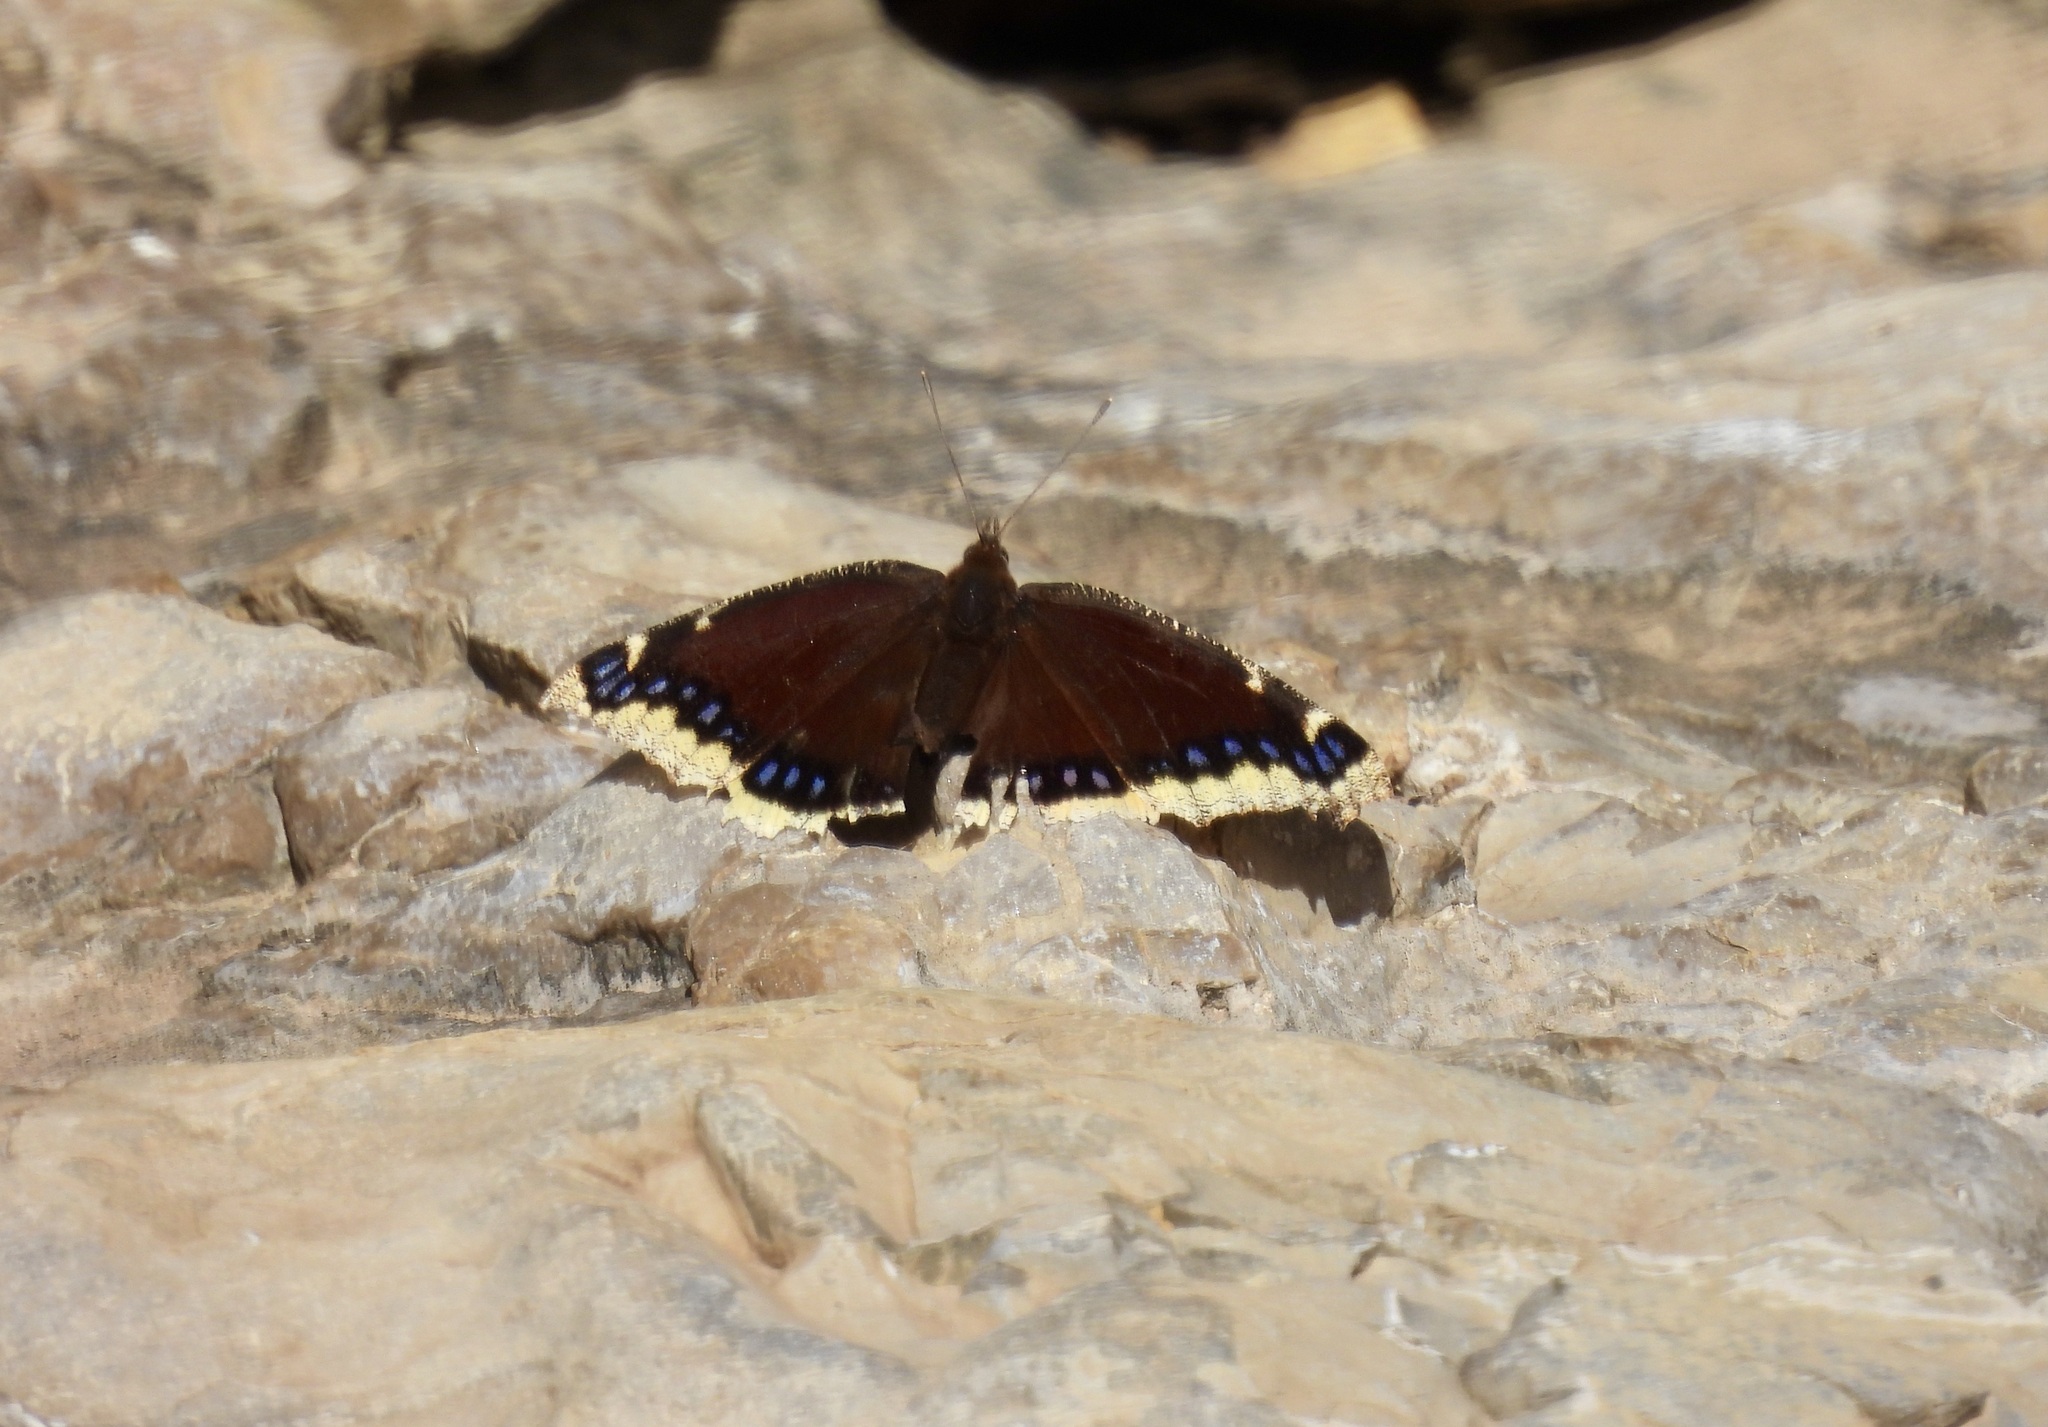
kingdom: Animalia
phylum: Arthropoda
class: Insecta
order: Lepidoptera
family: Nymphalidae
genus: Nymphalis
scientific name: Nymphalis antiopa
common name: Camberwell beauty
